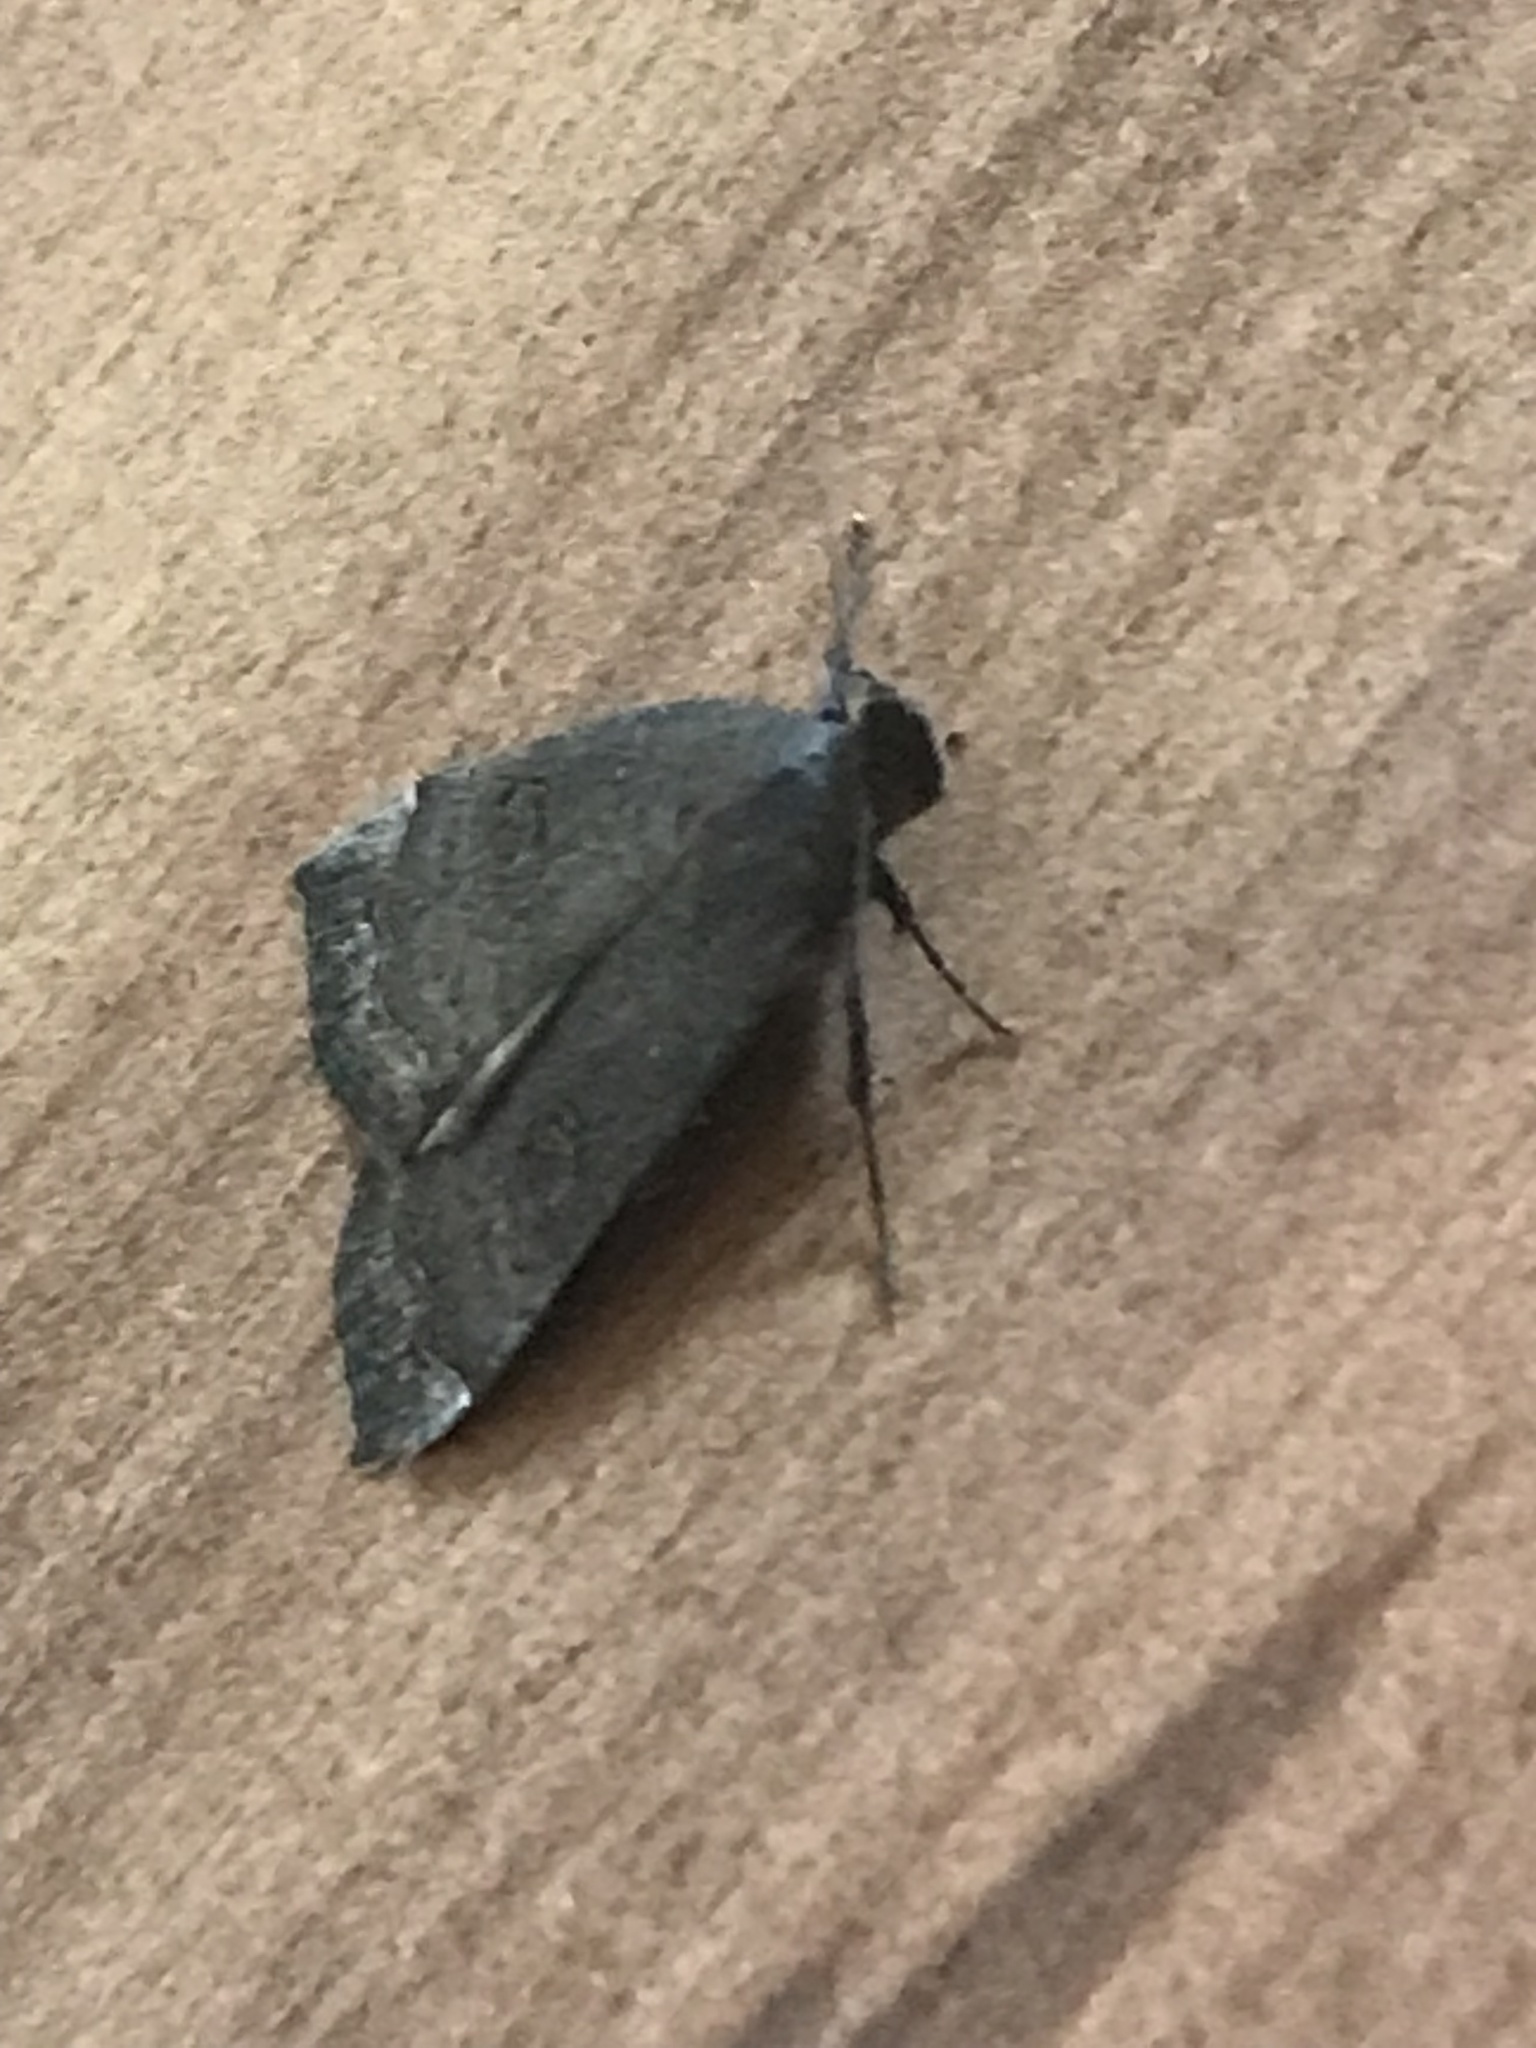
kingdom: Animalia
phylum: Arthropoda
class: Insecta
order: Lepidoptera
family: Erebidae
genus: Rhapsa
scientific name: Rhapsa scotosialis
